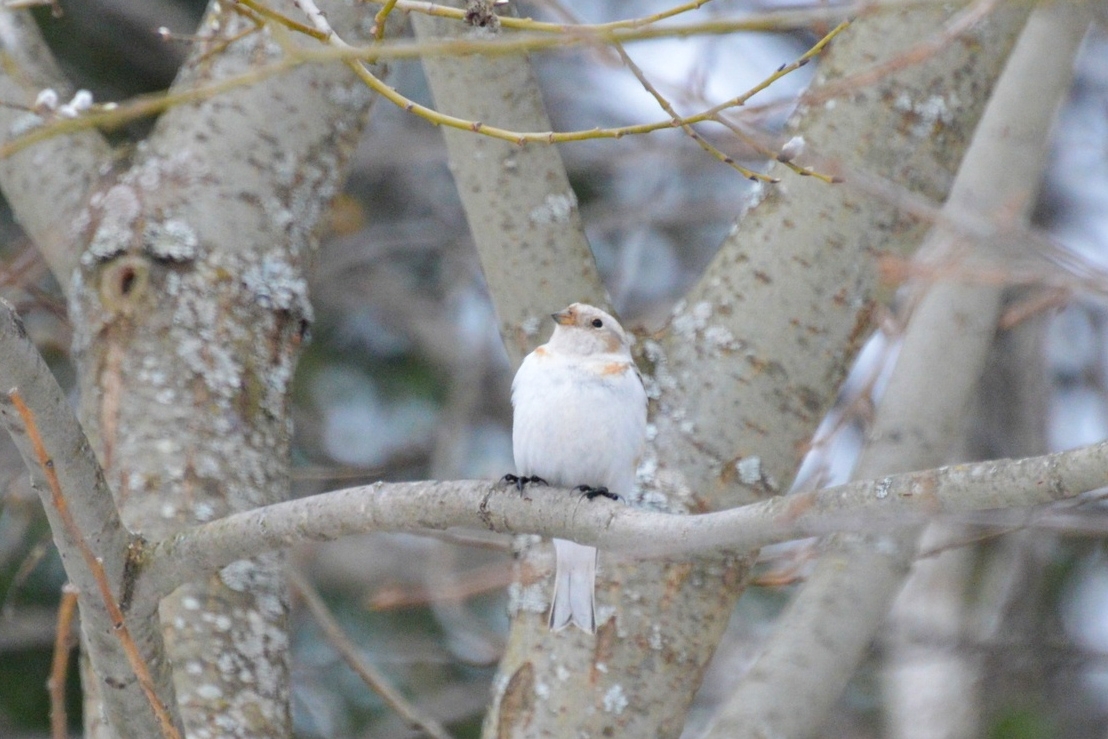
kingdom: Animalia
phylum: Chordata
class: Aves
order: Passeriformes
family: Calcariidae
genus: Plectrophenax
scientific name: Plectrophenax nivalis
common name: Snow bunting
